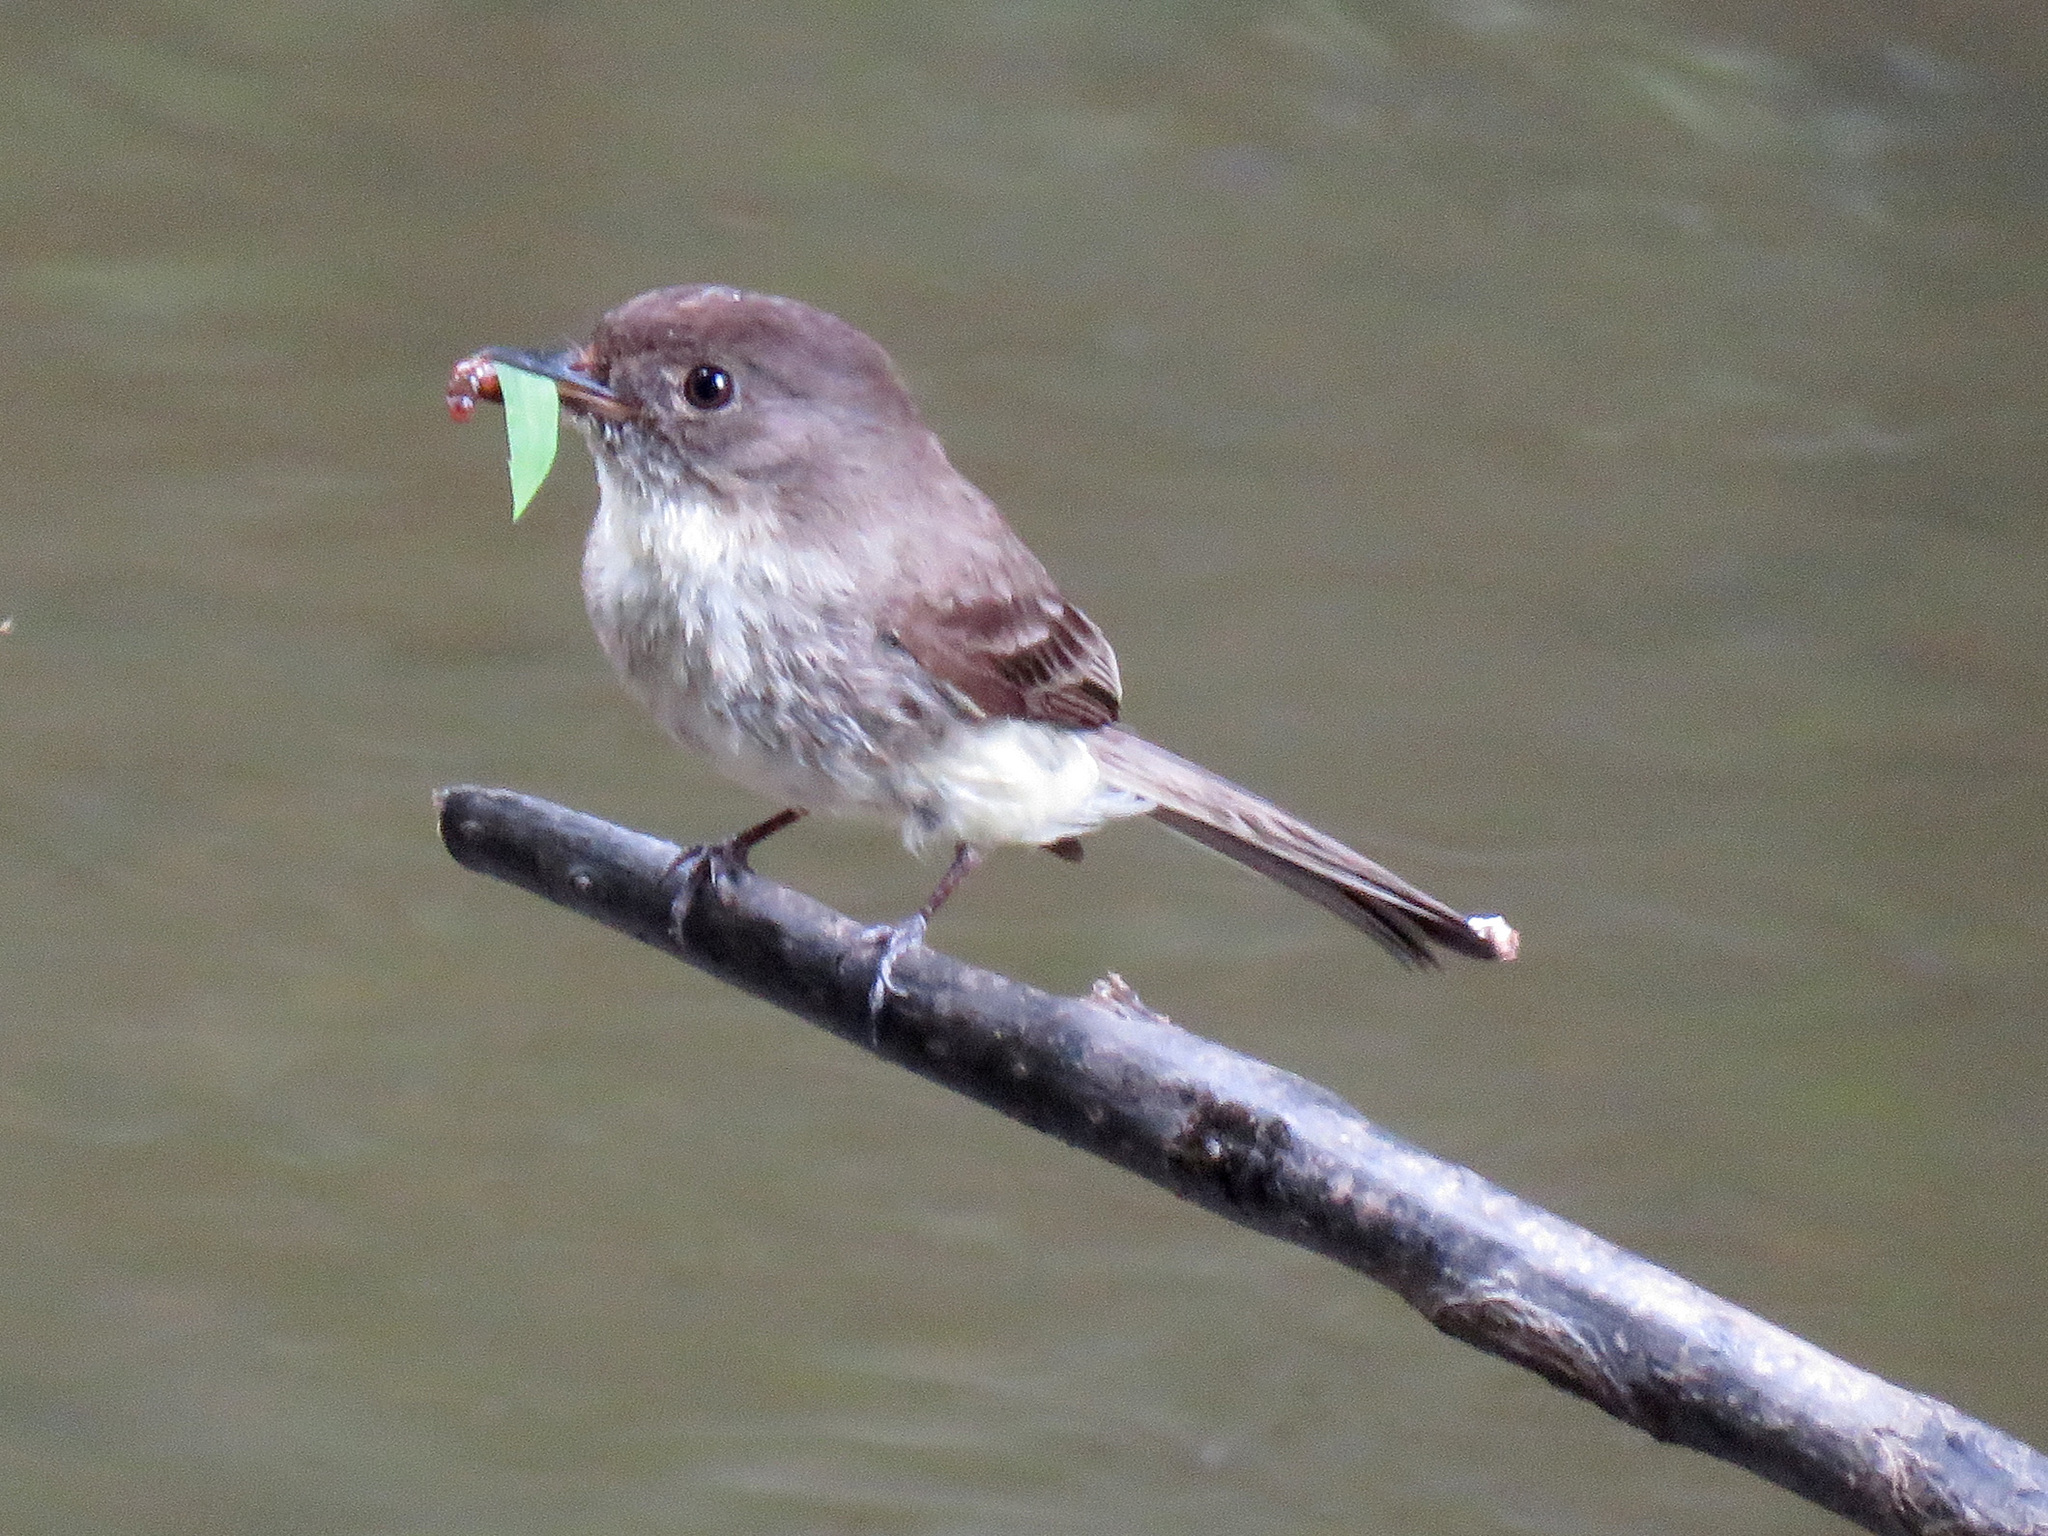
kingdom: Animalia
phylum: Chordata
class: Aves
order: Passeriformes
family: Tyrannidae
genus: Sayornis
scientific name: Sayornis phoebe
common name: Eastern phoebe
